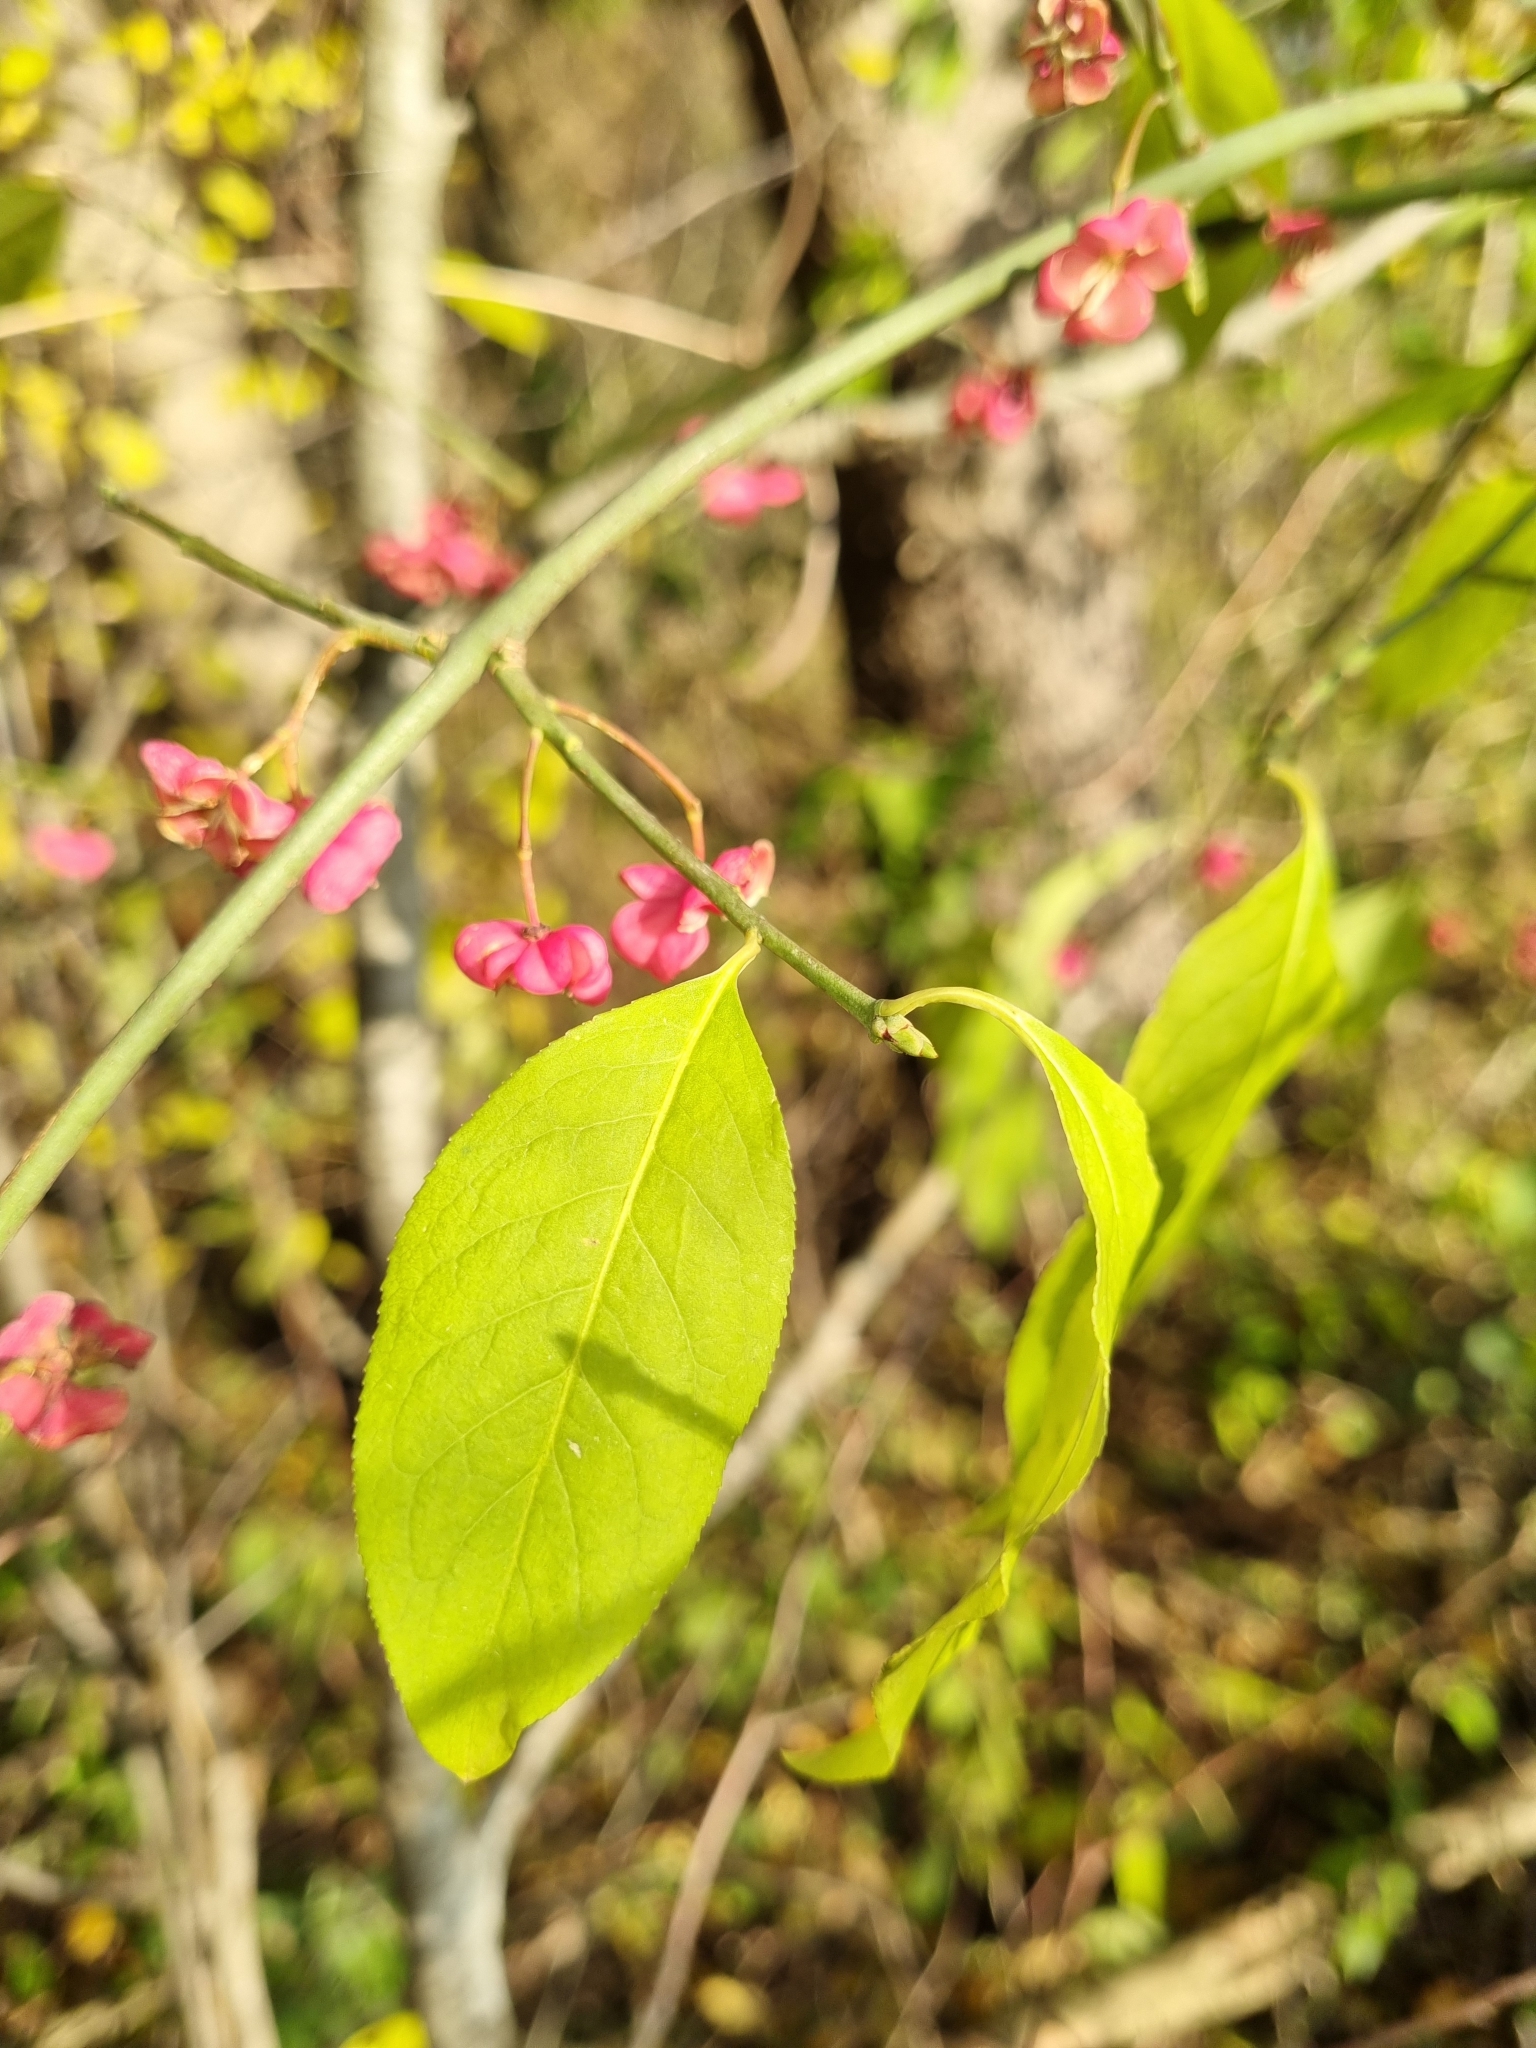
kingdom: Plantae
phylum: Tracheophyta
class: Magnoliopsida
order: Celastrales
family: Celastraceae
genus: Euonymus
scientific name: Euonymus europaeus
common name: Spindle
